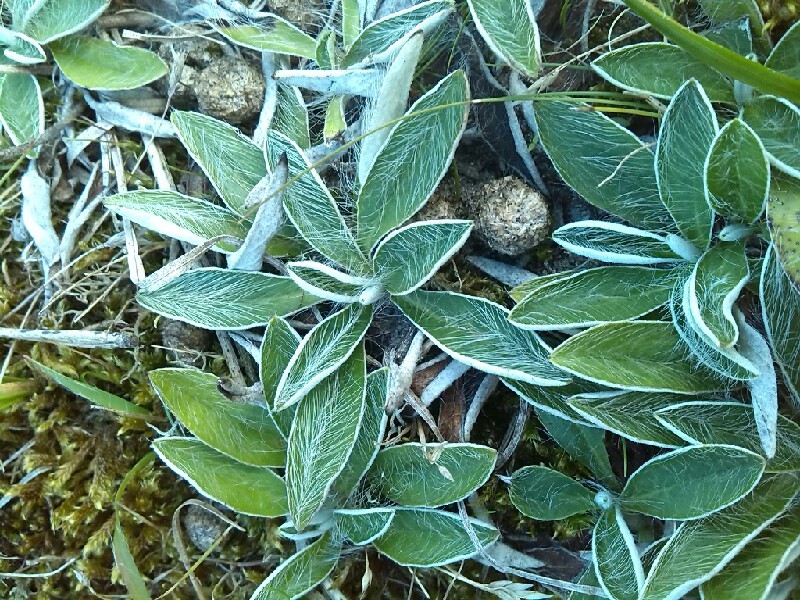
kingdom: Plantae
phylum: Tracheophyta
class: Magnoliopsida
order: Asterales
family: Asteraceae
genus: Pilosella
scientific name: Pilosella peleteriana
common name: Shaggy mouse-ear-hawkweed
